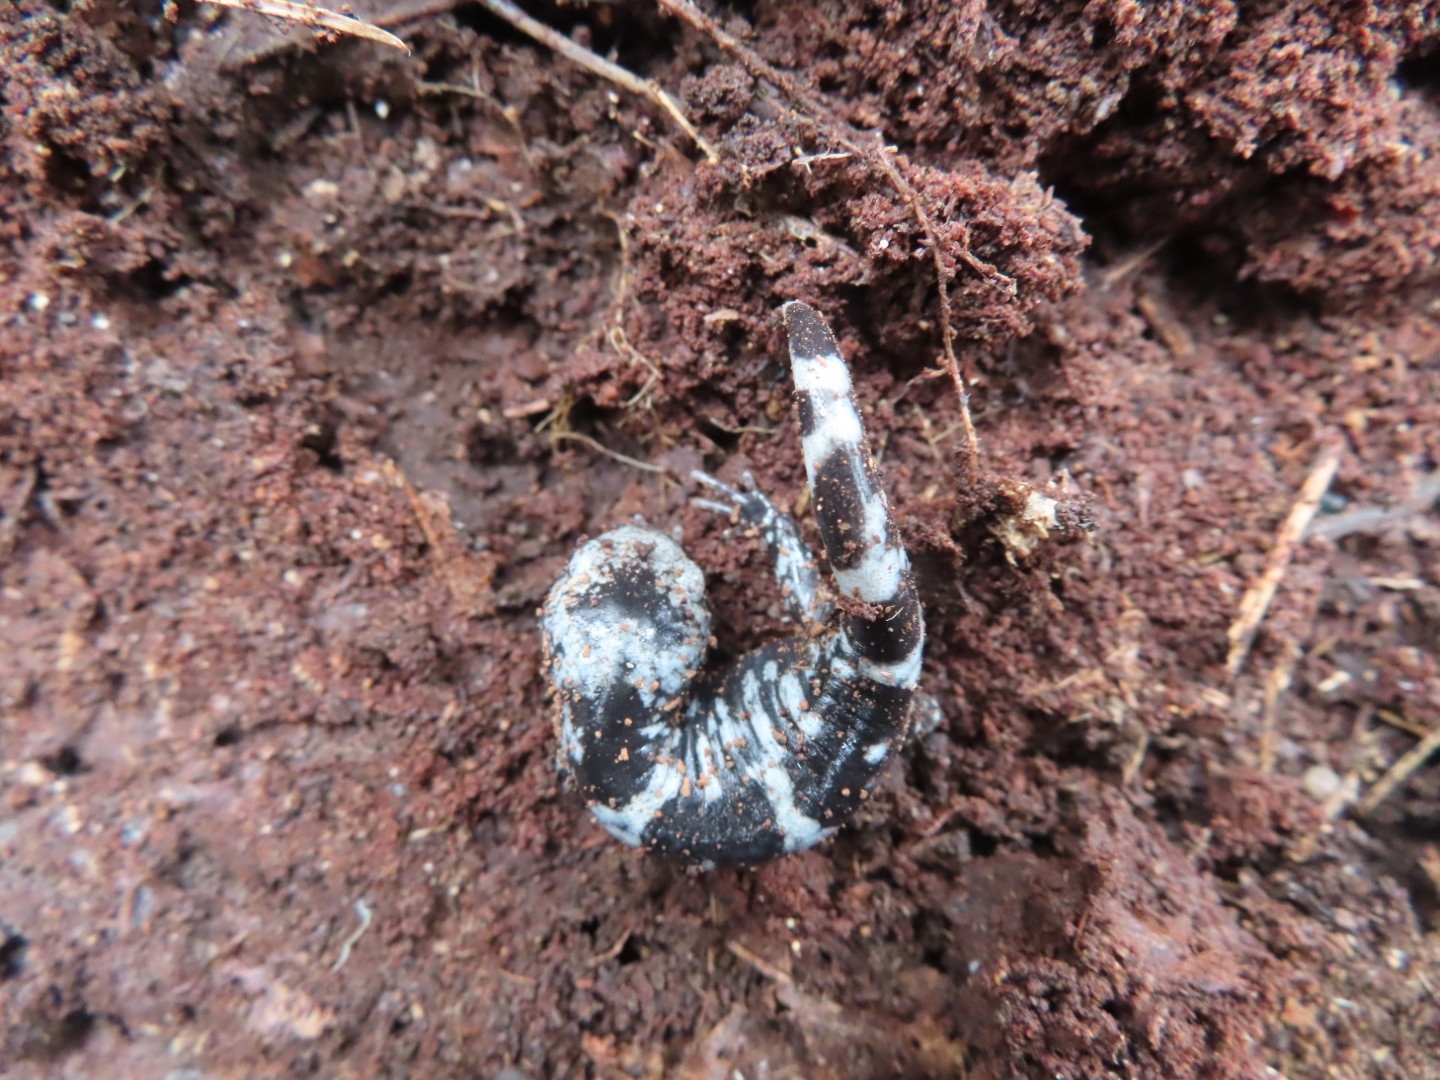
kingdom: Animalia
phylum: Chordata
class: Amphibia
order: Caudata
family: Ambystomatidae
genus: Ambystoma
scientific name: Ambystoma opacum
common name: Marbled salamander
